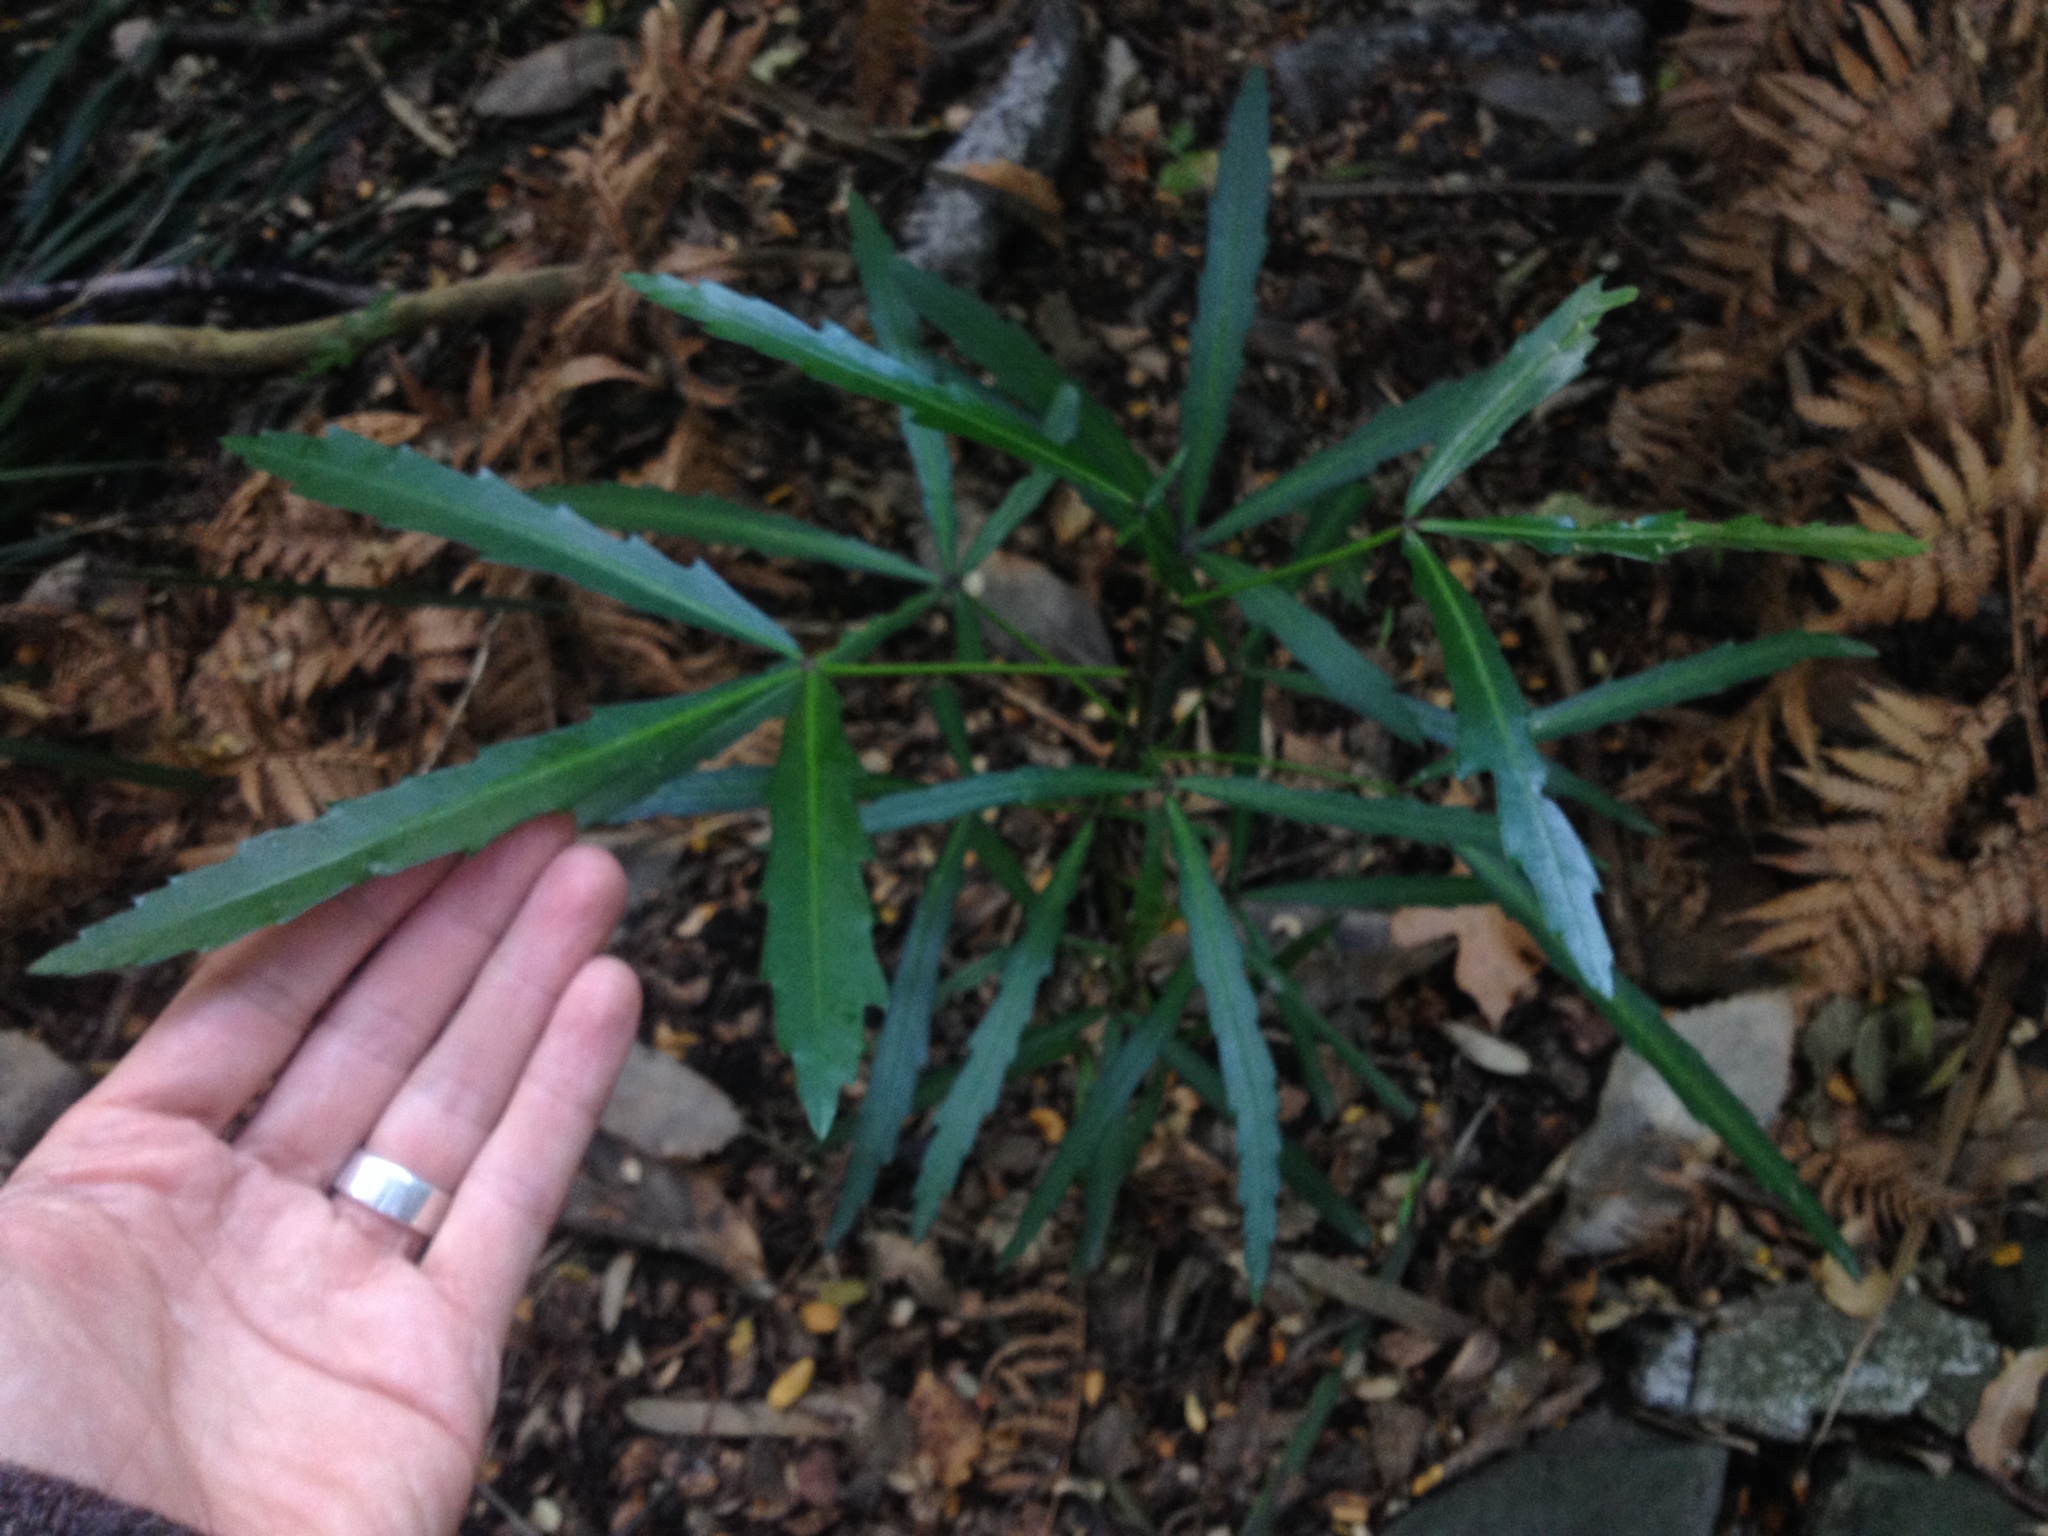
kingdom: Plantae
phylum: Tracheophyta
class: Magnoliopsida
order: Apiales
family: Araliaceae
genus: Pseudopanax
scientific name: Pseudopanax
